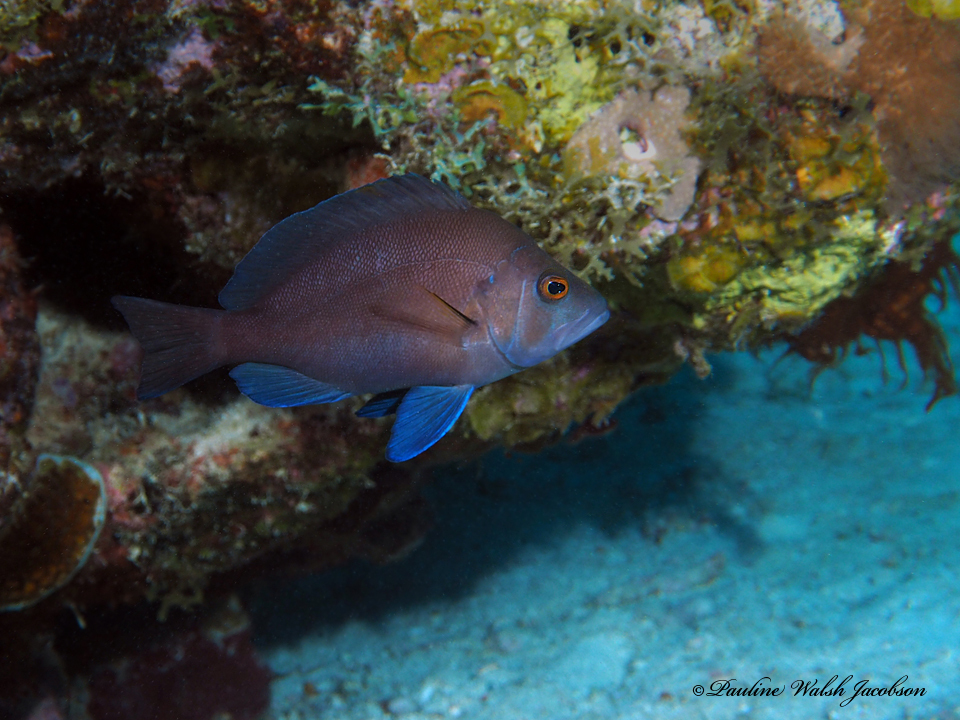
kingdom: Animalia
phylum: Chordata
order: Perciformes
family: Serranidae
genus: Hypoplectrus
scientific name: Hypoplectrus chlorurus
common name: Yellowtail hamlet
